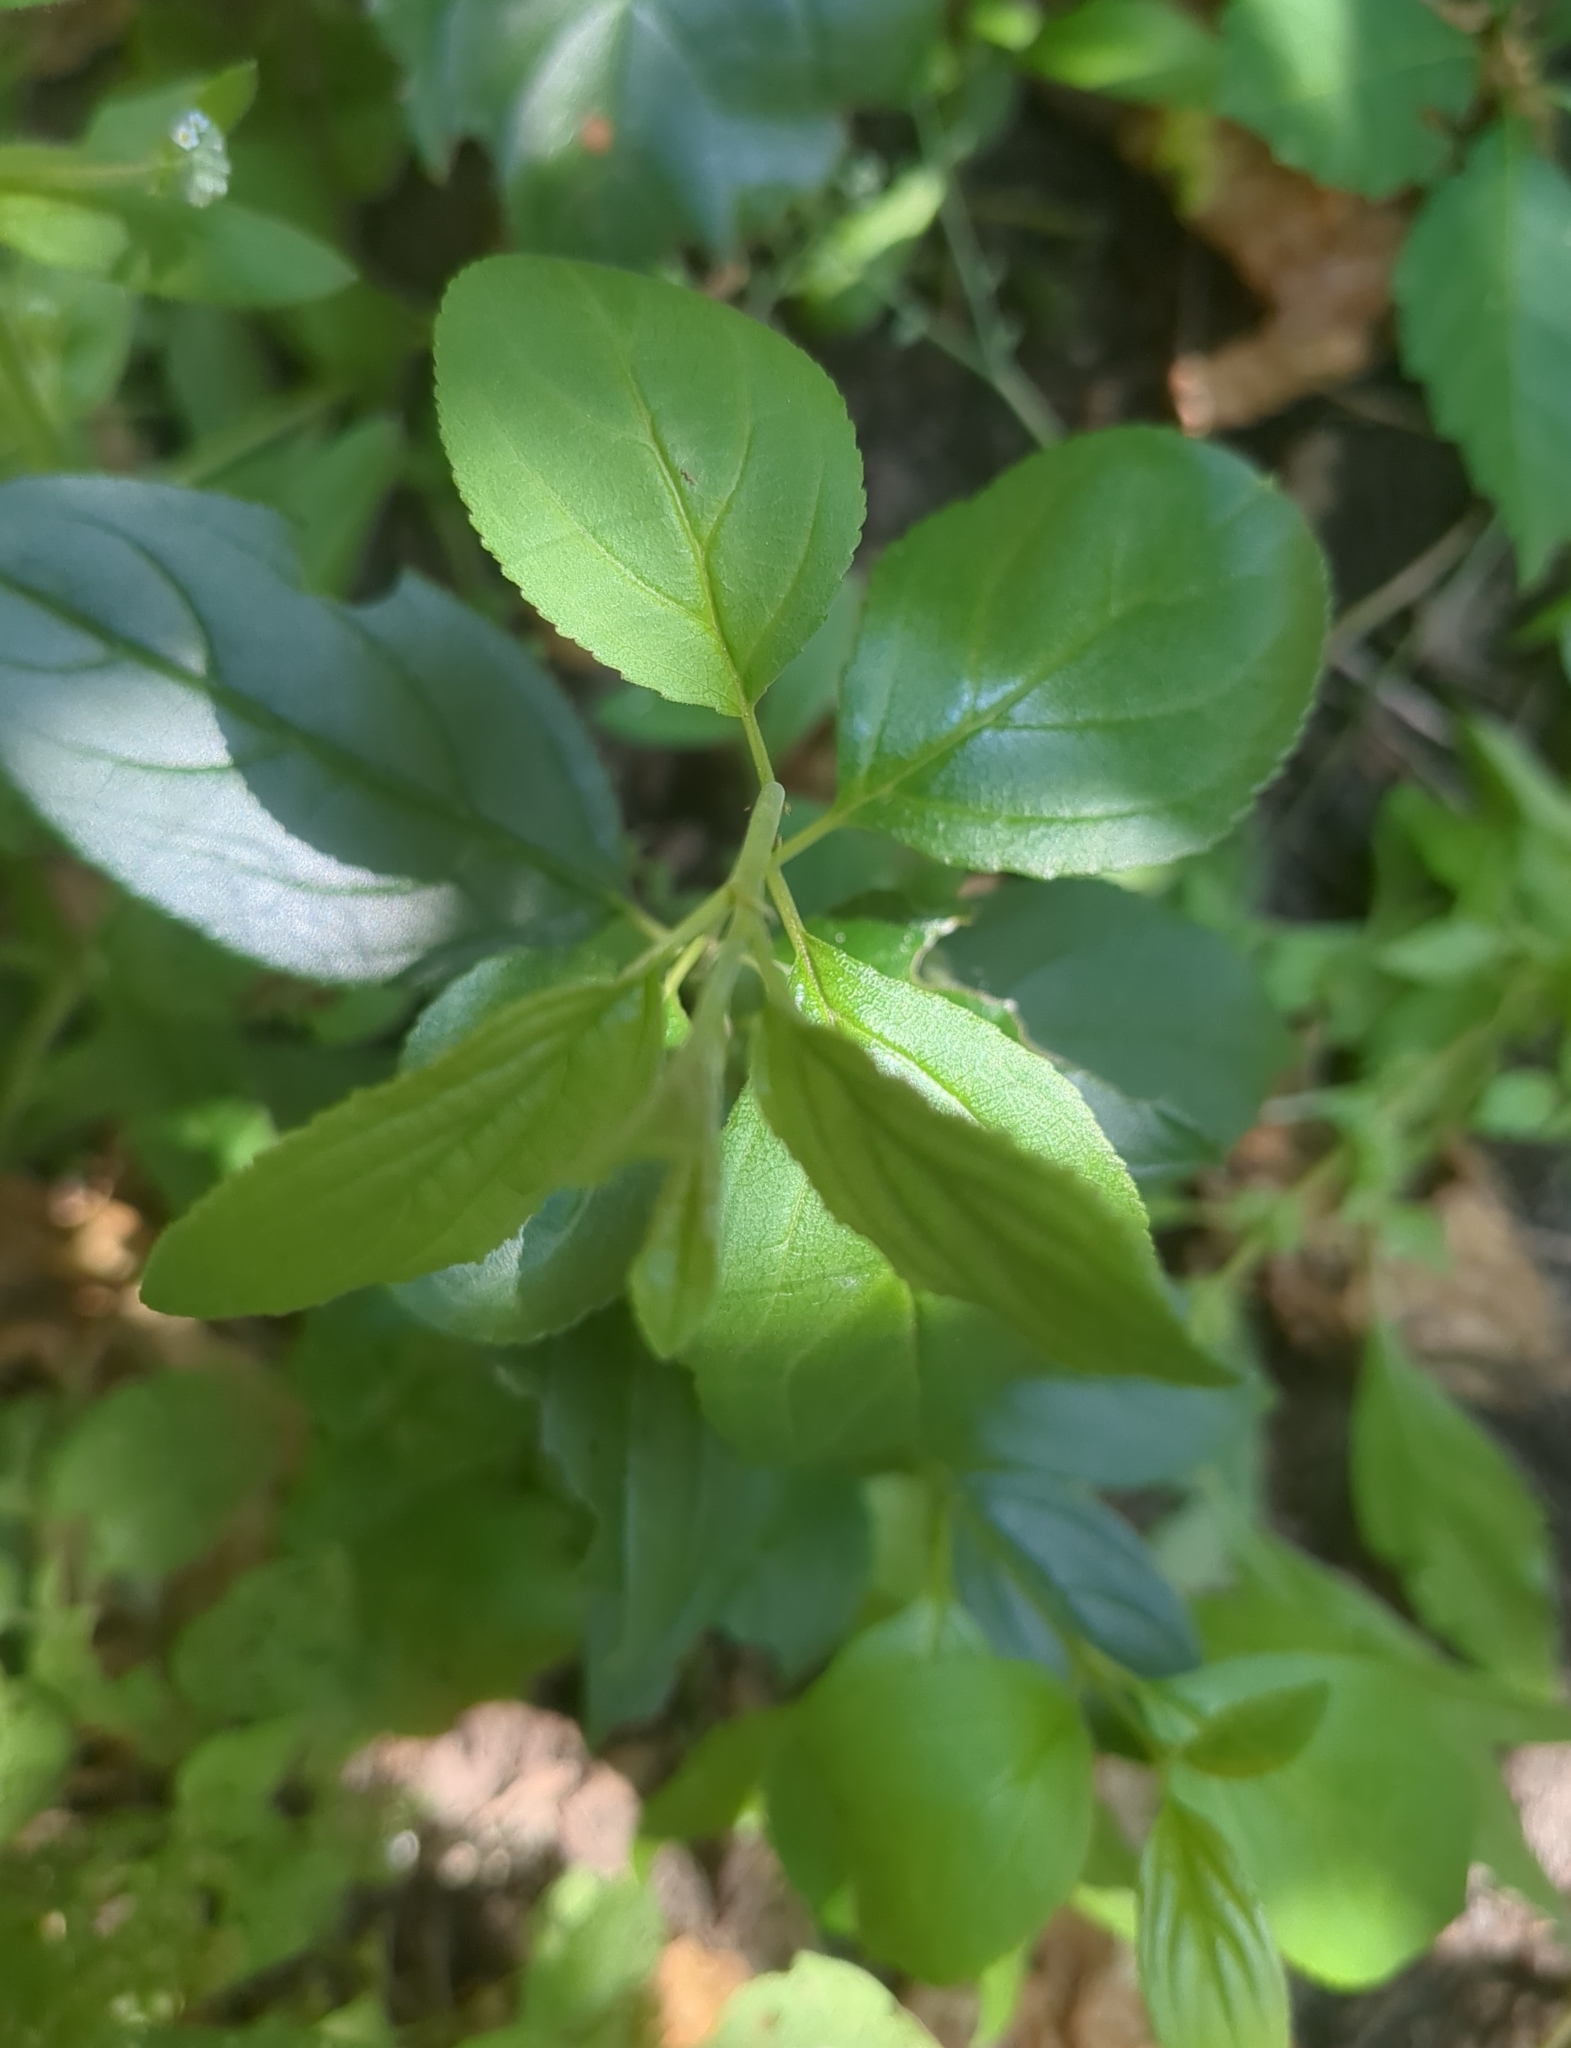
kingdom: Plantae
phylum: Tracheophyta
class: Magnoliopsida
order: Rosales
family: Rhamnaceae
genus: Rhamnus
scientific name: Rhamnus cathartica
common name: Common buckthorn
